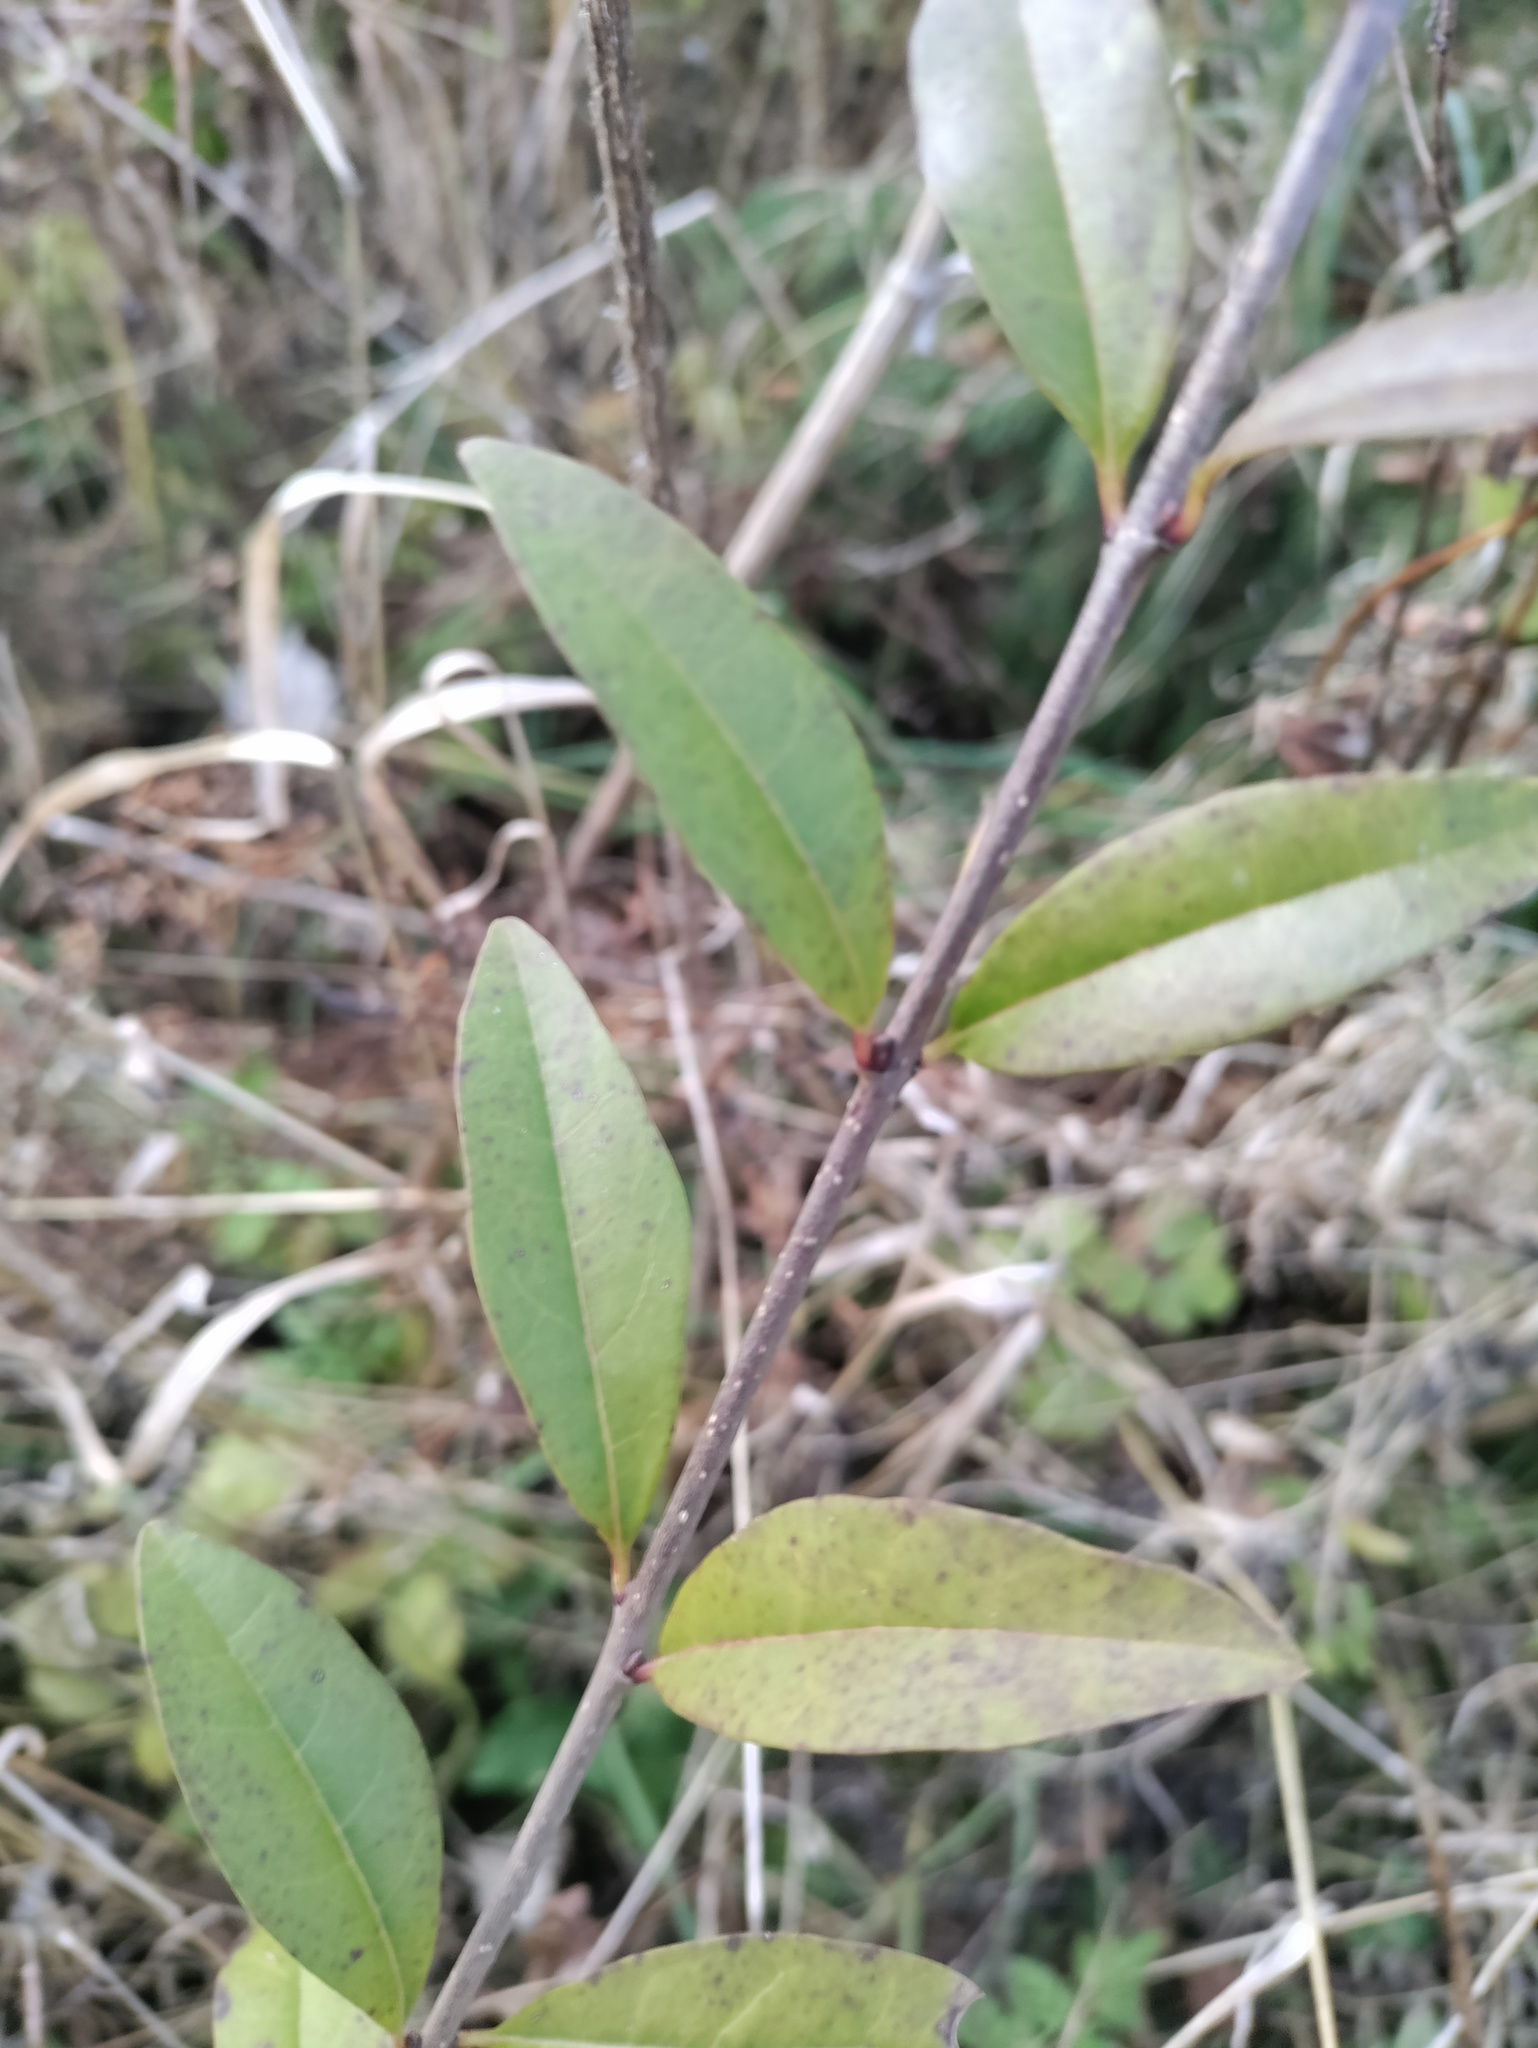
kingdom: Plantae
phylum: Tracheophyta
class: Magnoliopsida
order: Lamiales
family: Oleaceae
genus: Ligustrum
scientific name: Ligustrum vulgare
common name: Wild privet
